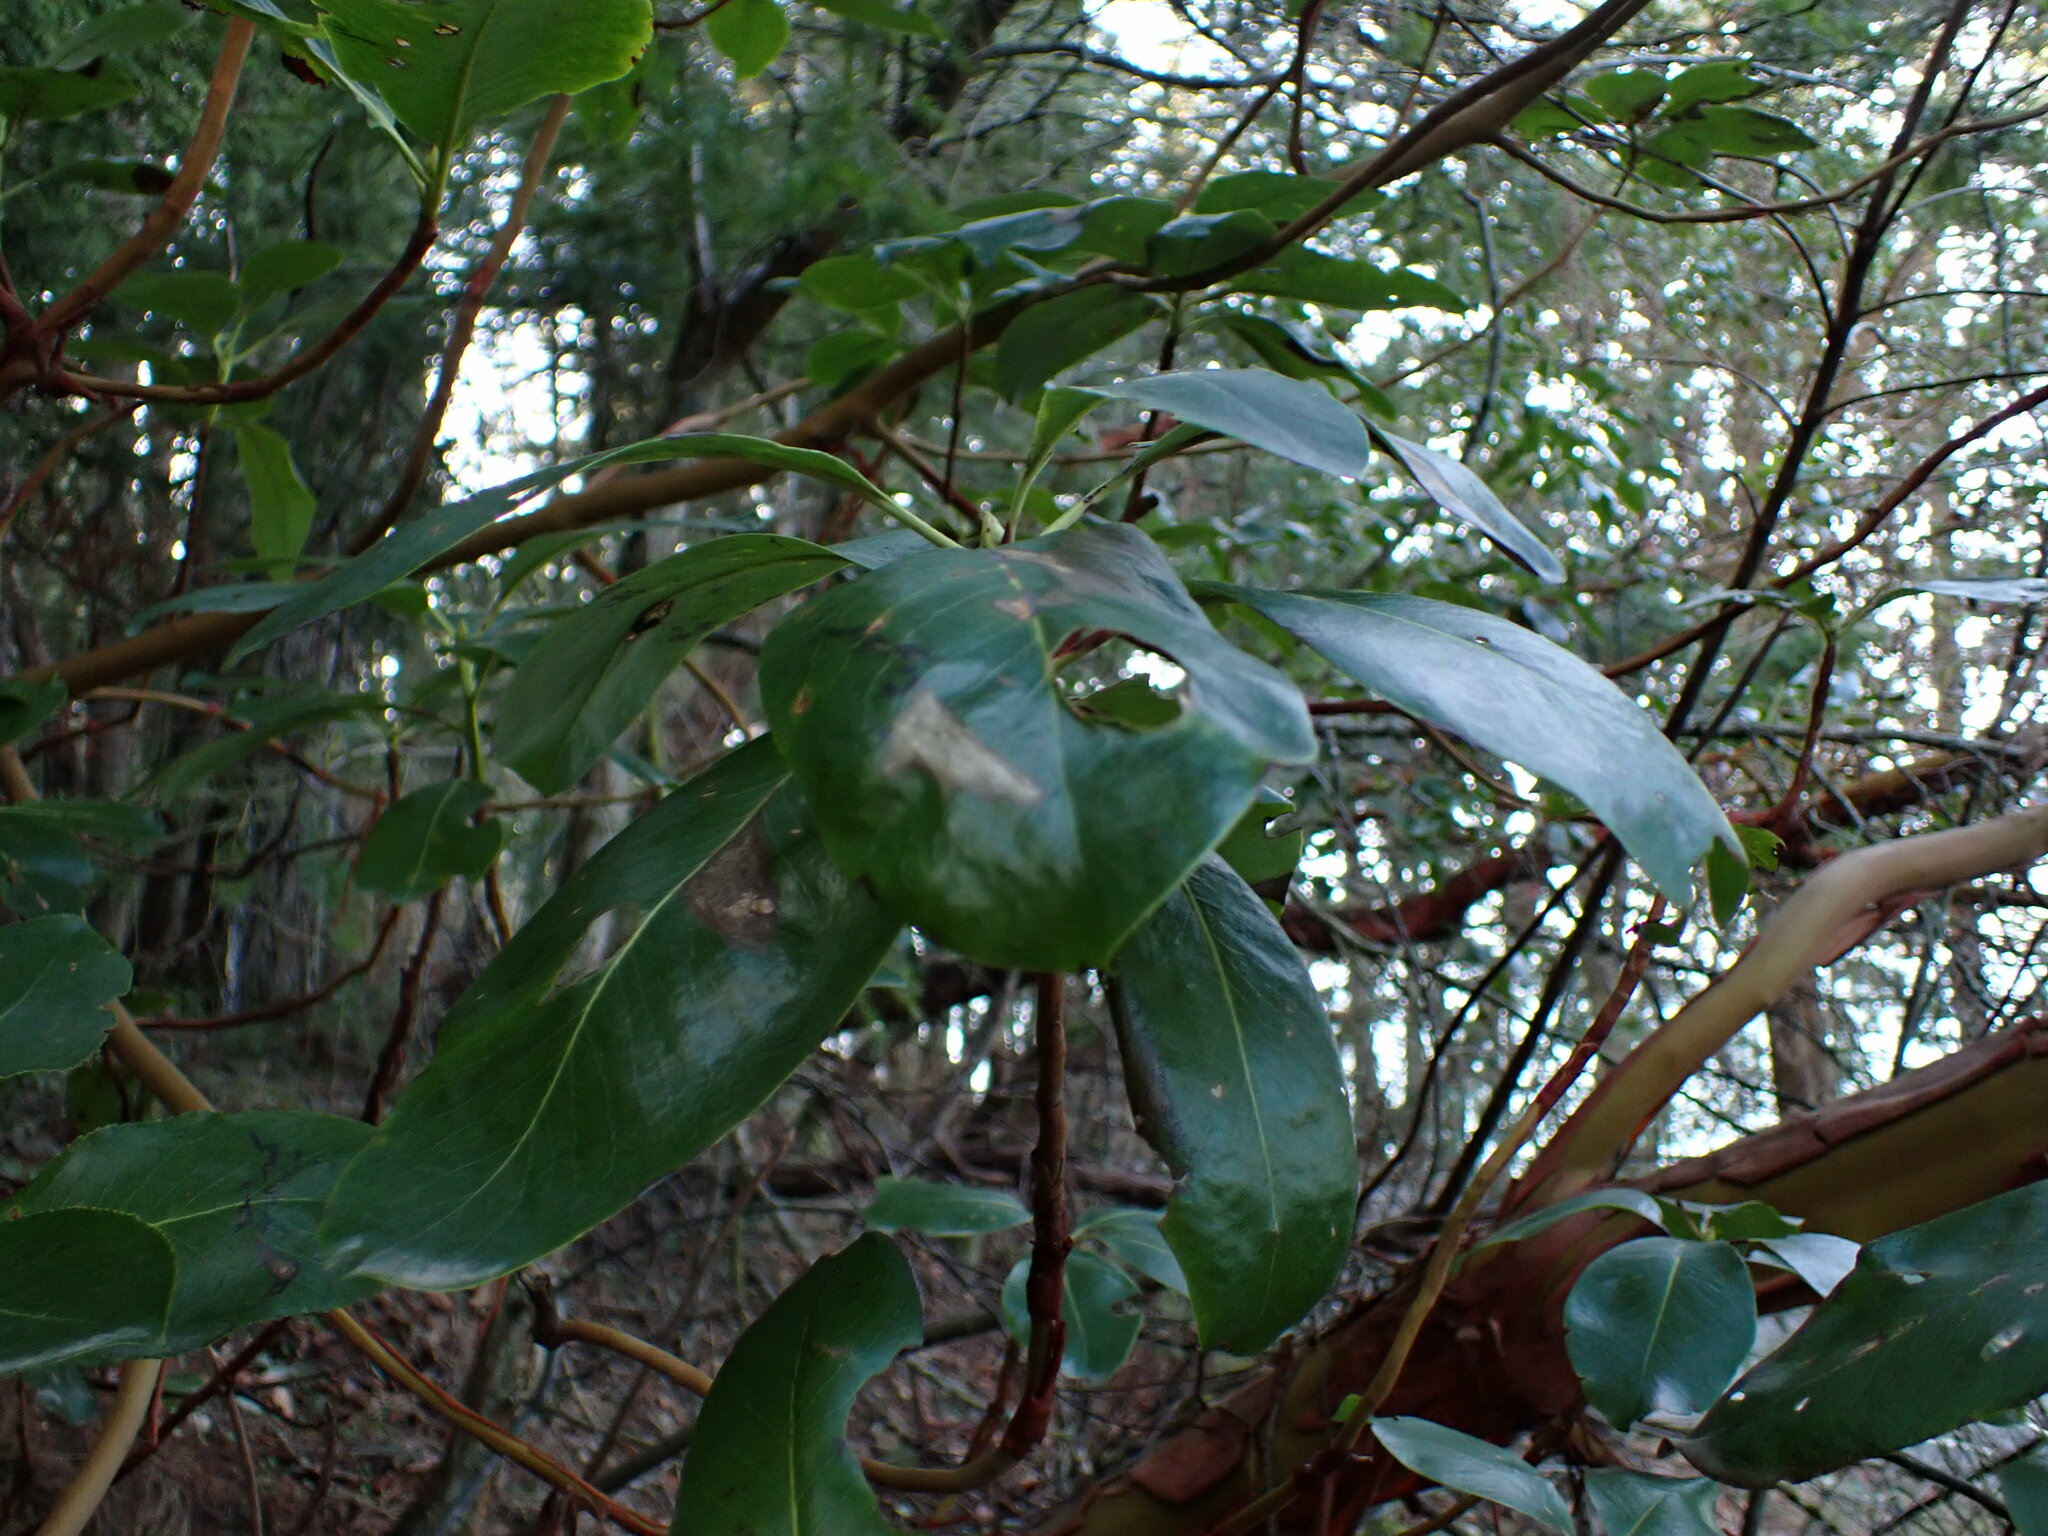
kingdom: Plantae
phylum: Tracheophyta
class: Magnoliopsida
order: Ericales
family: Ericaceae
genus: Arbutus
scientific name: Arbutus menziesii
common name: Pacific madrone
